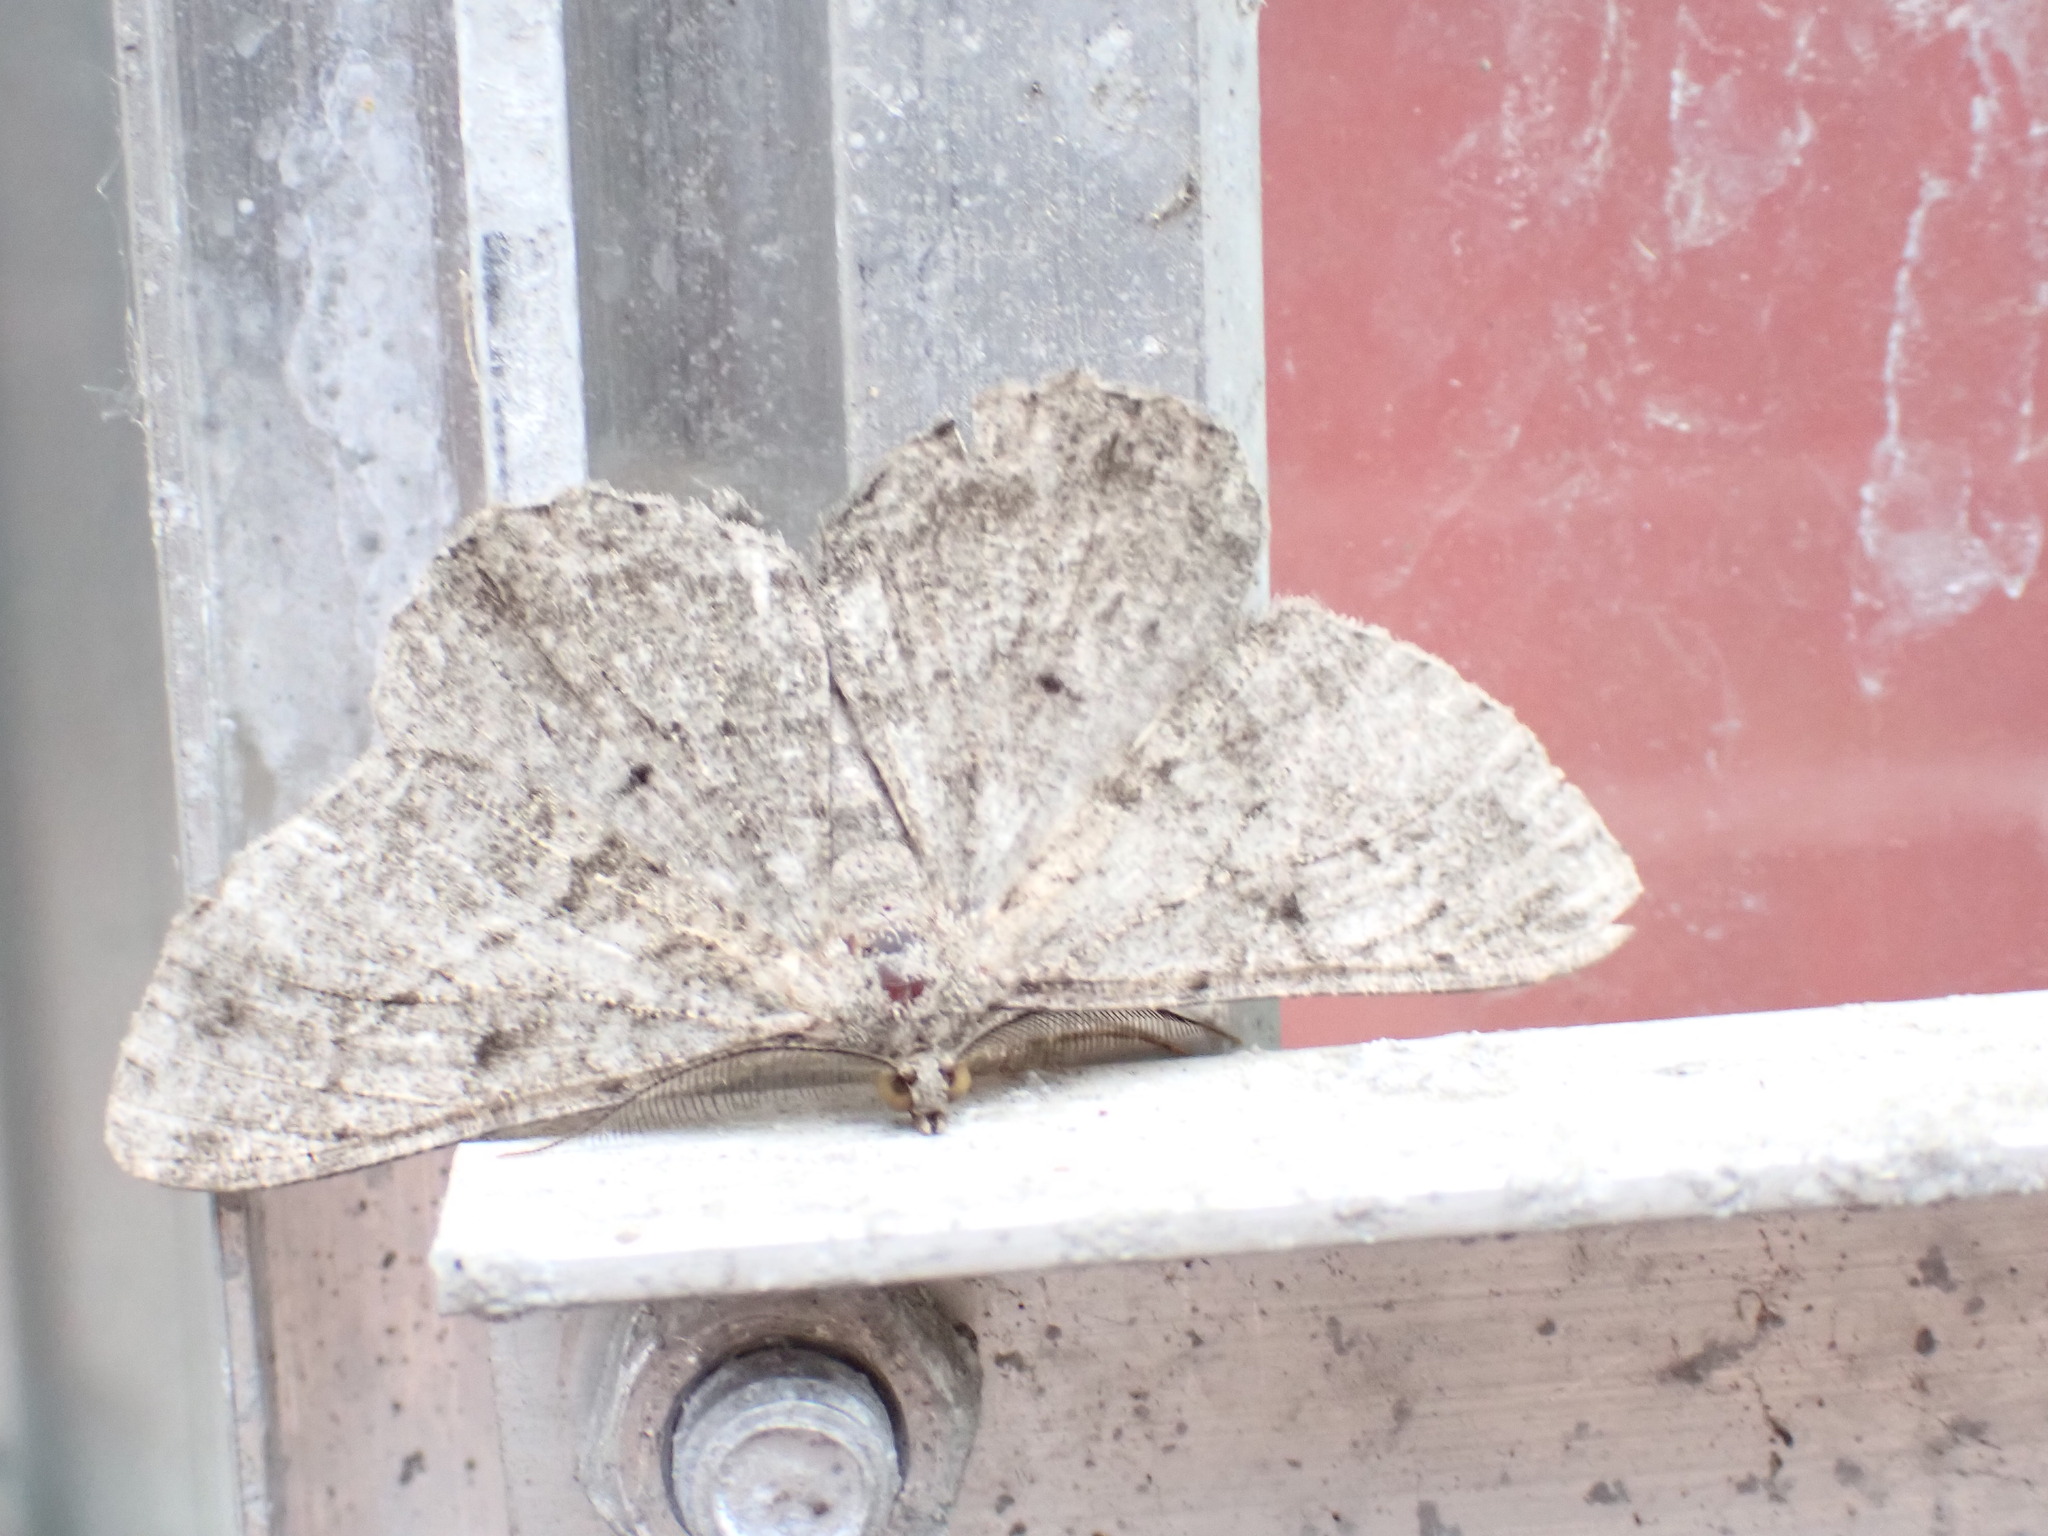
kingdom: Animalia
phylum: Arthropoda
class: Insecta
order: Lepidoptera
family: Geometridae
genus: Peribatodes
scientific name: Peribatodes rhomboidaria
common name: Willow beauty
